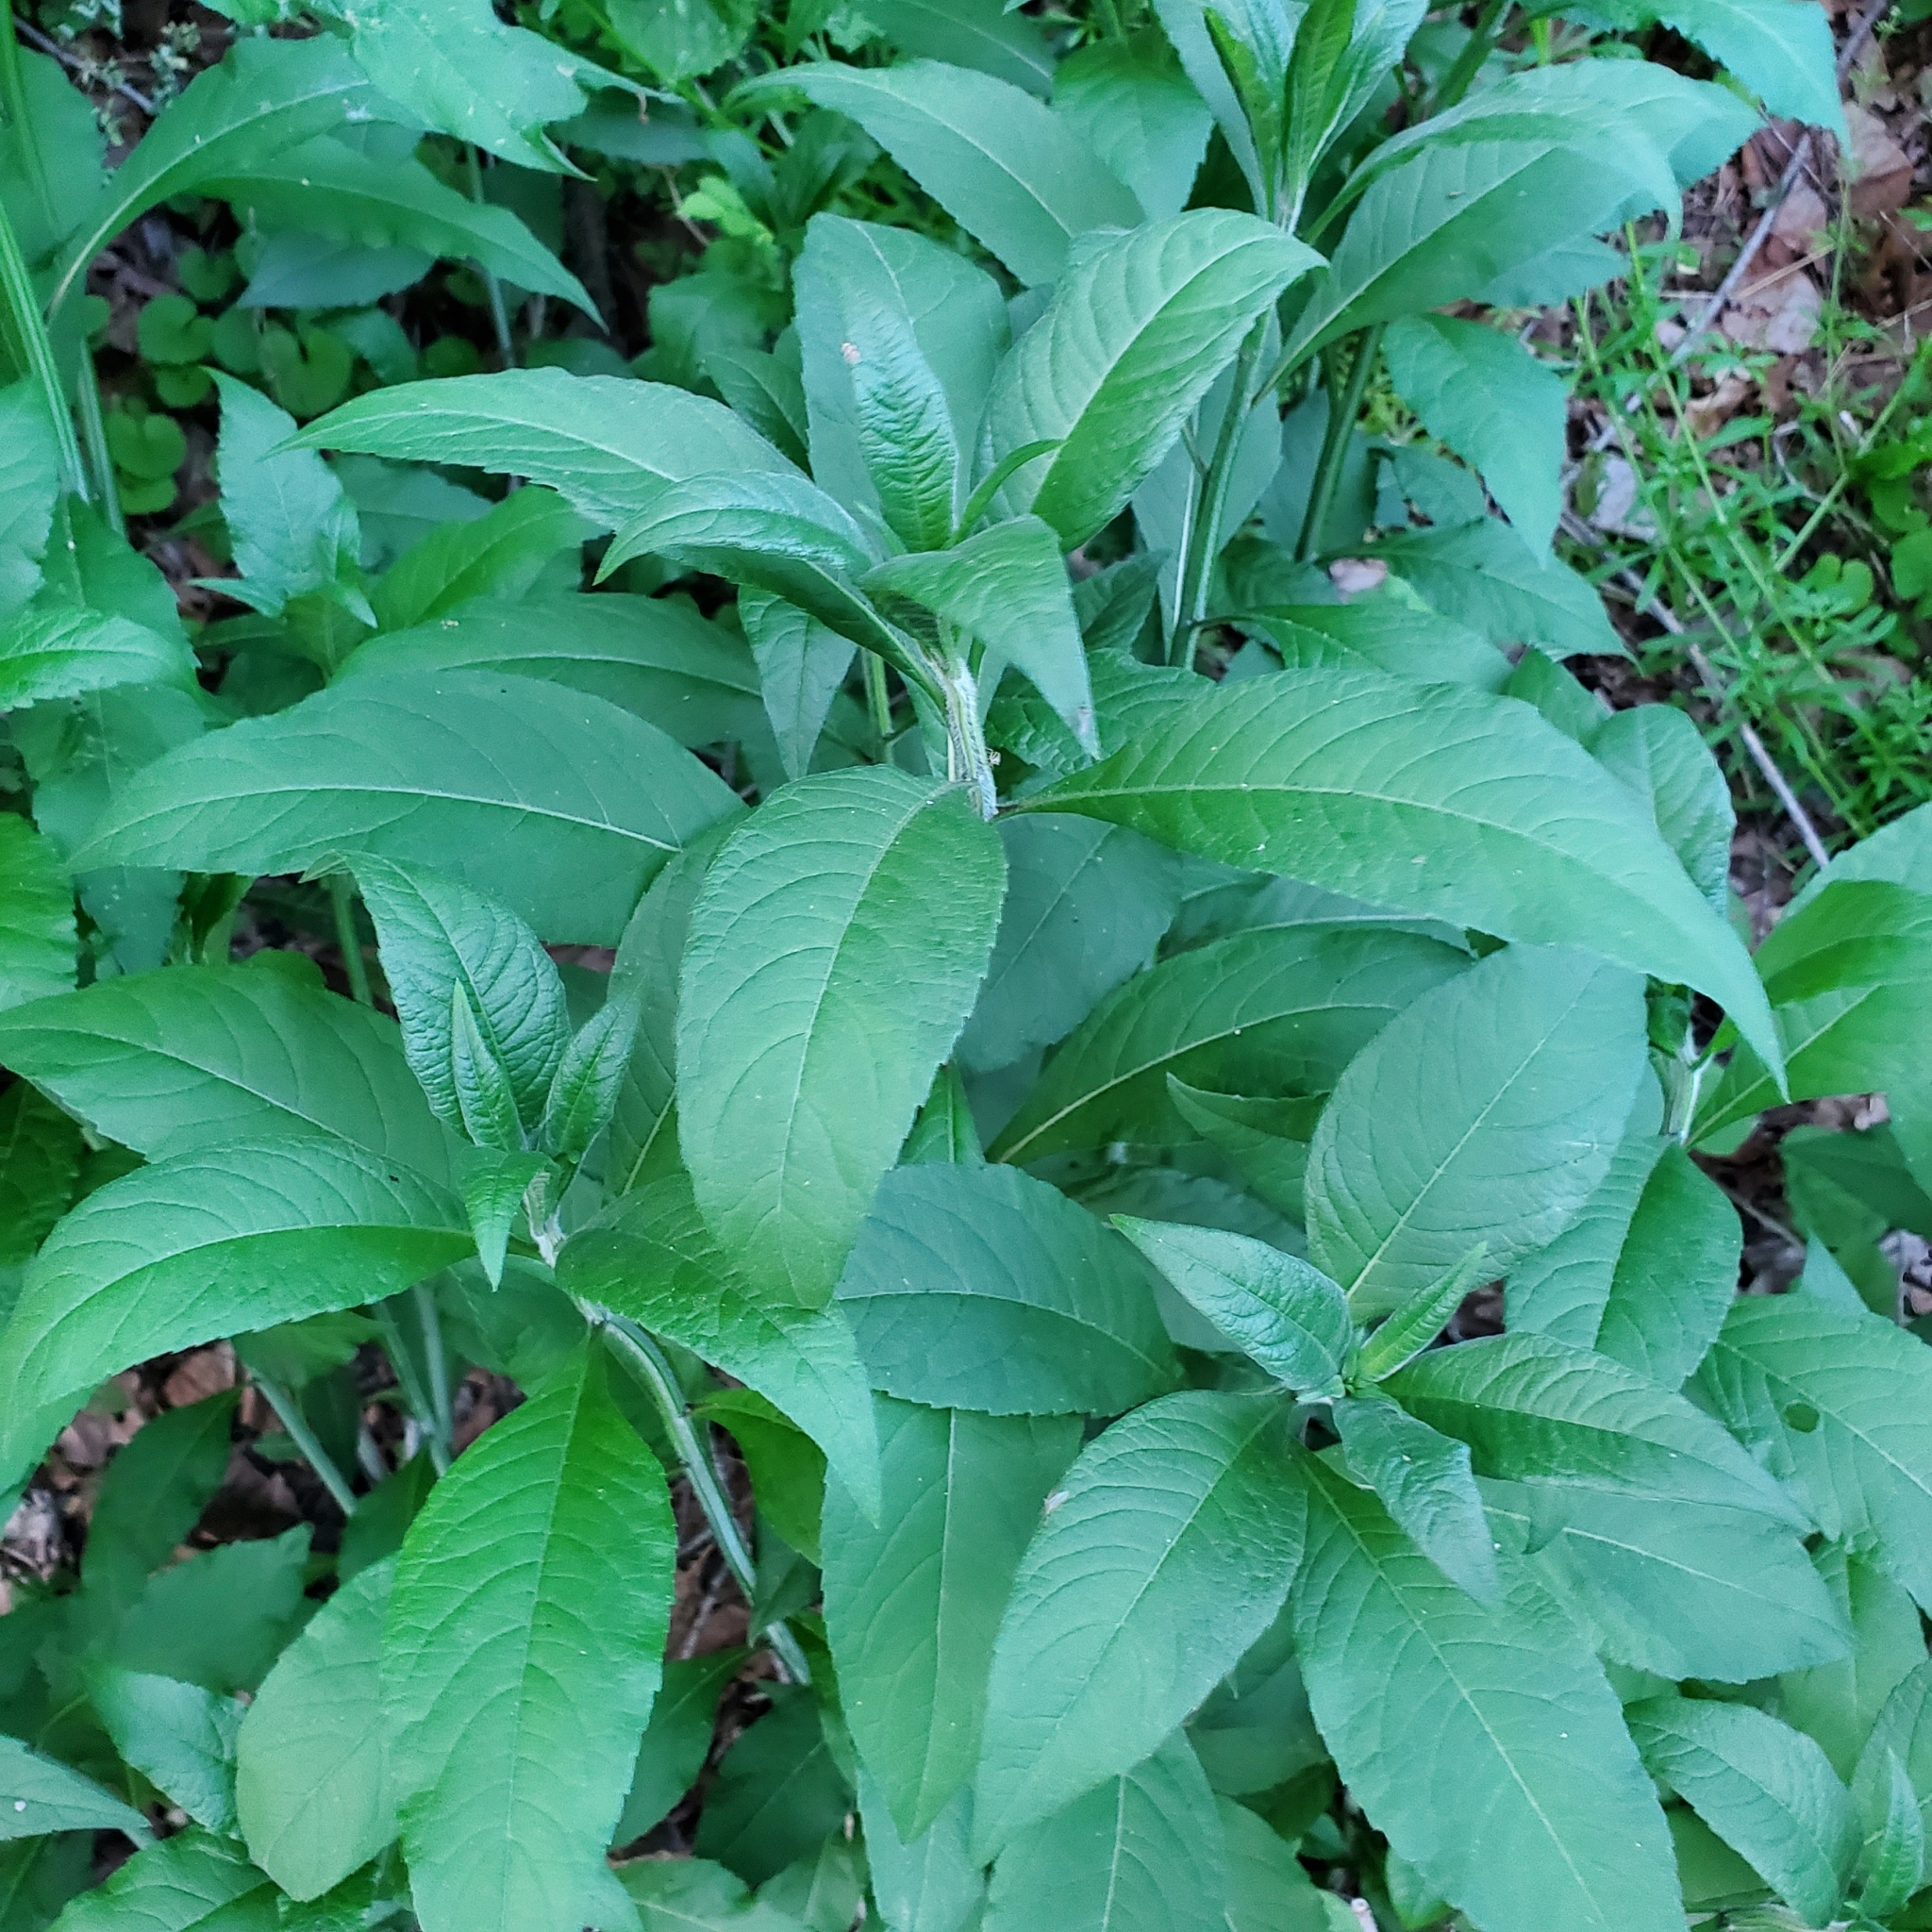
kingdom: Plantae
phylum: Tracheophyta
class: Magnoliopsida
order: Asterales
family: Asteraceae
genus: Verbesina
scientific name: Verbesina alternifolia
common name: Wingstem
